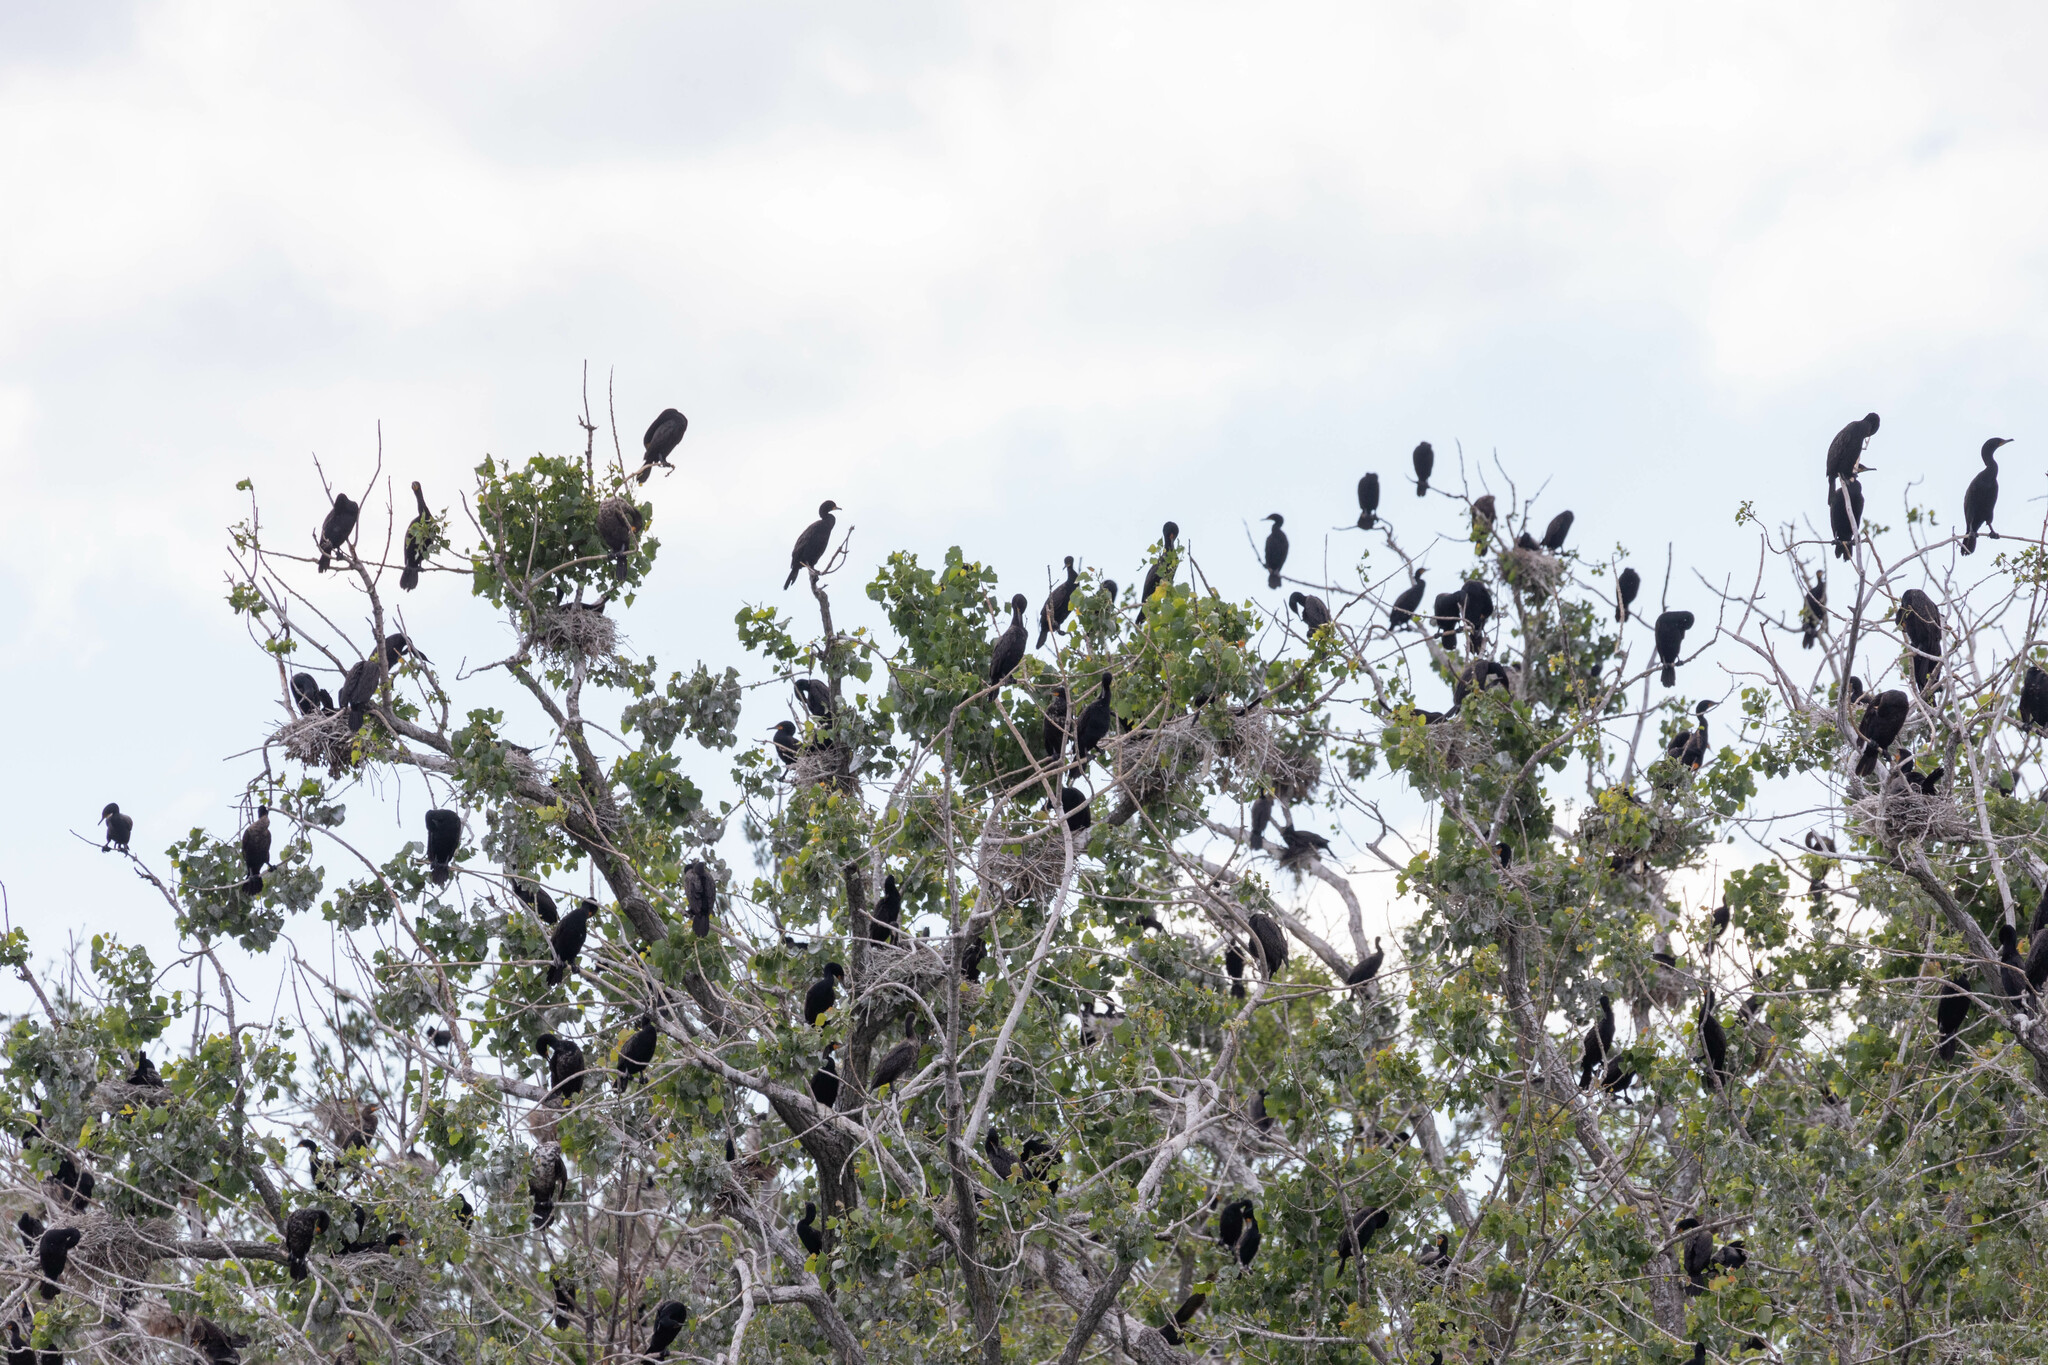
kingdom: Animalia
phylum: Chordata
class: Aves
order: Suliformes
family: Phalacrocoracidae
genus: Phalacrocorax
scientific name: Phalacrocorax auritus
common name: Double-crested cormorant
